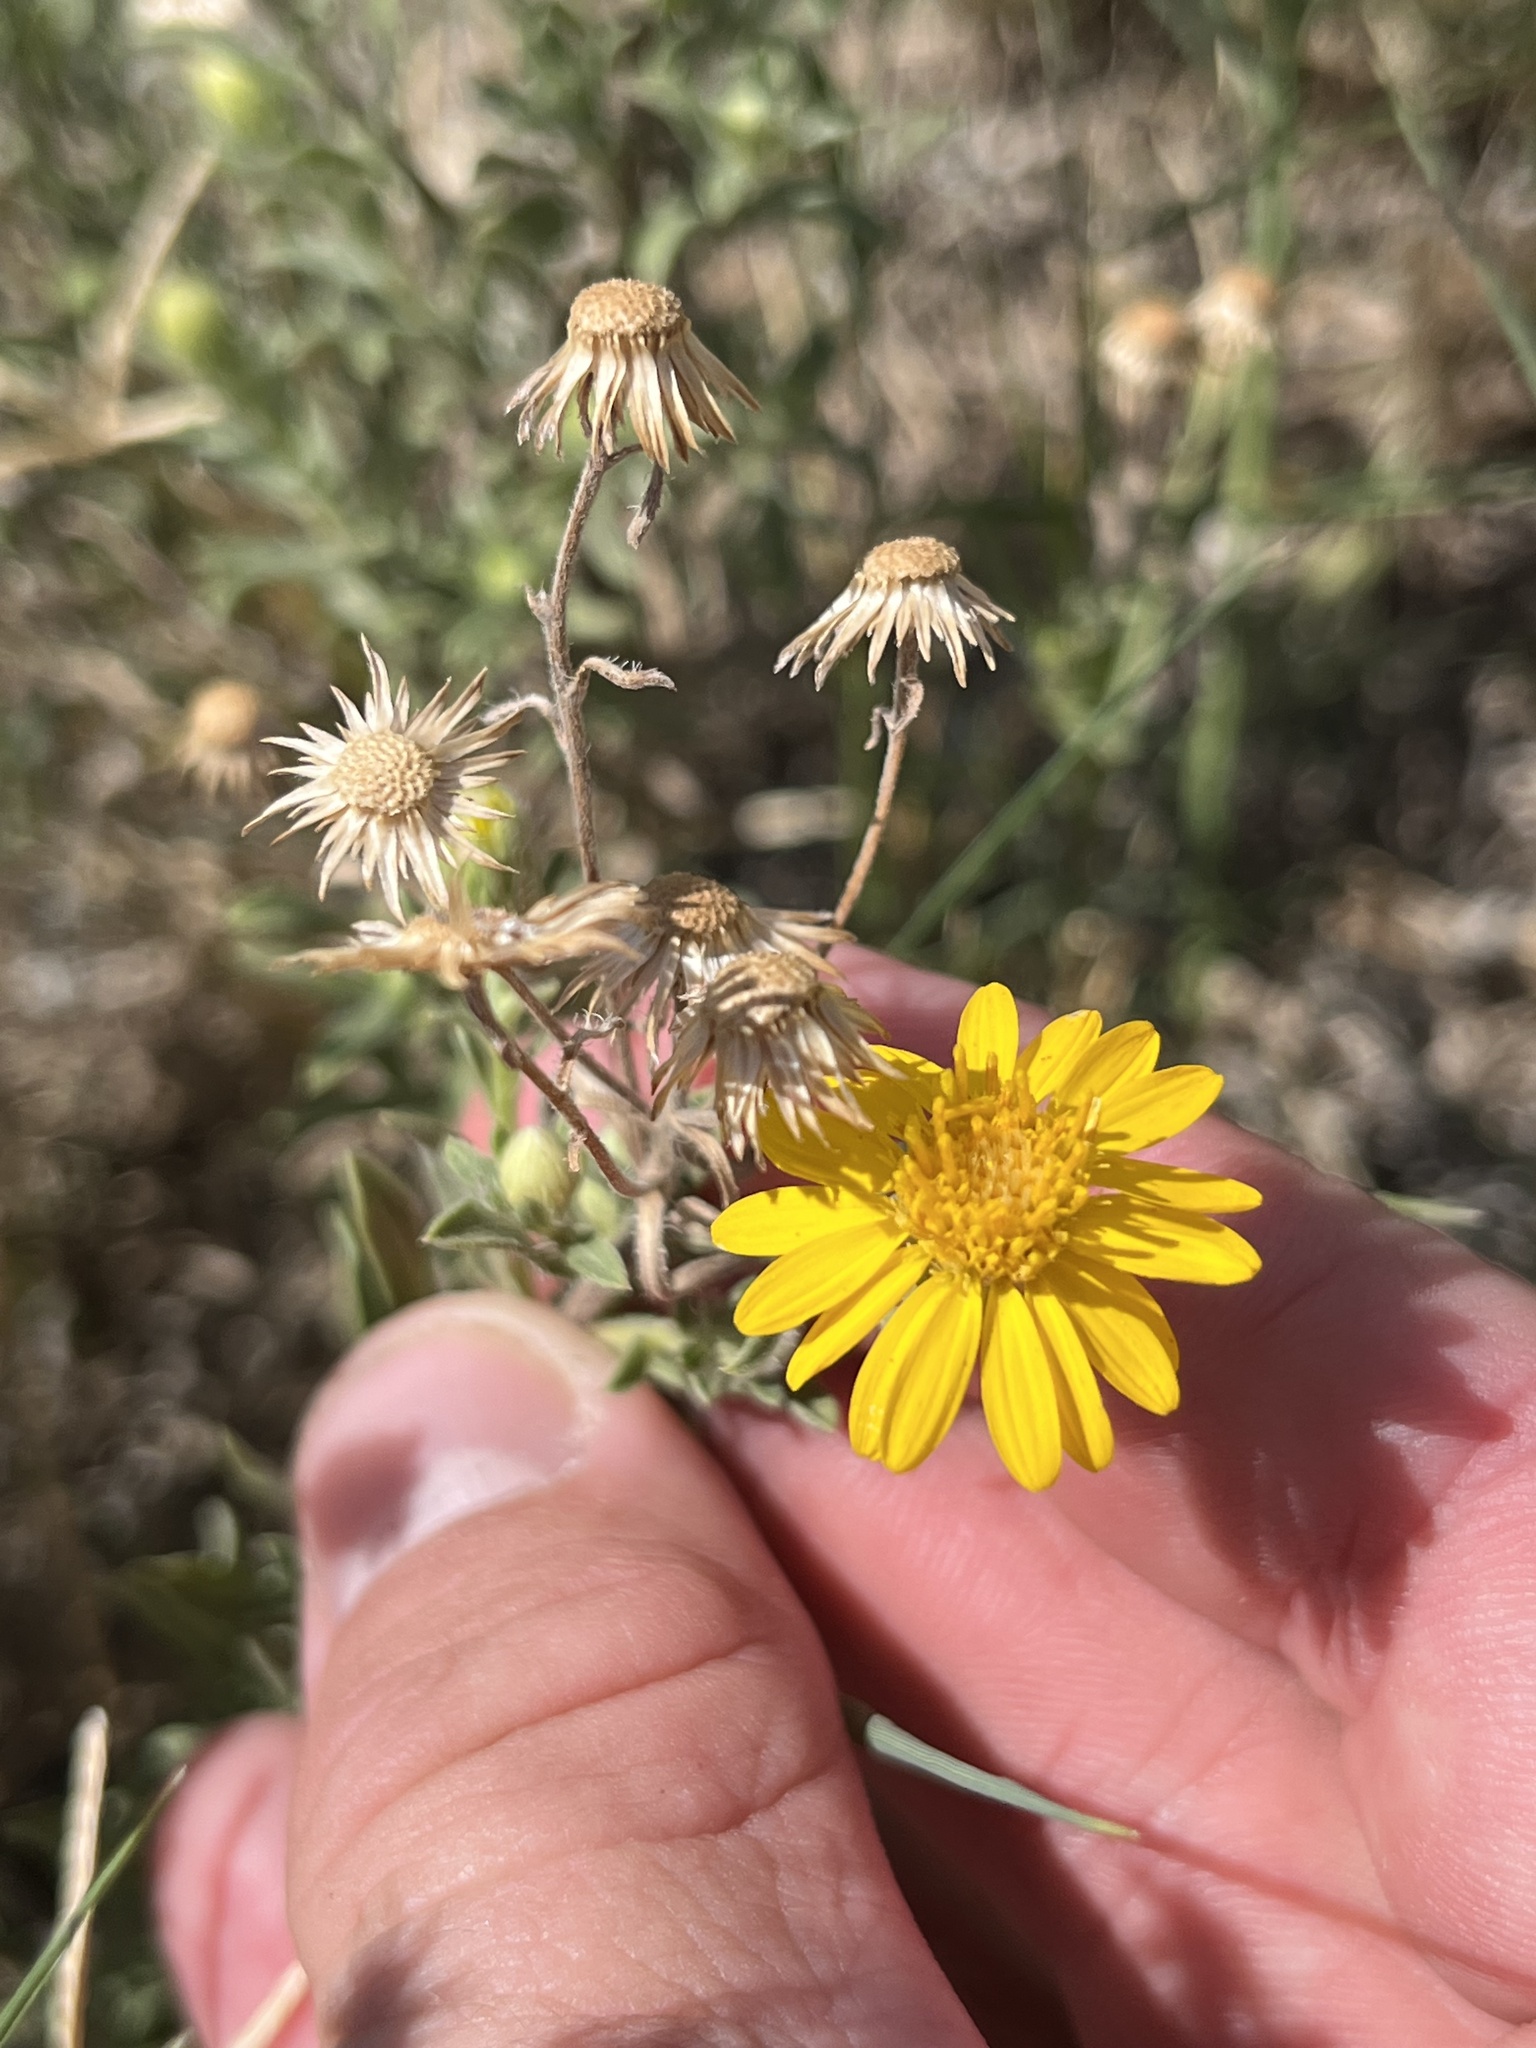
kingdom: Plantae
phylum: Tracheophyta
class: Magnoliopsida
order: Asterales
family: Asteraceae
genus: Heterotheca
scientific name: Heterotheca canescens
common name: Hoary golden-aster
